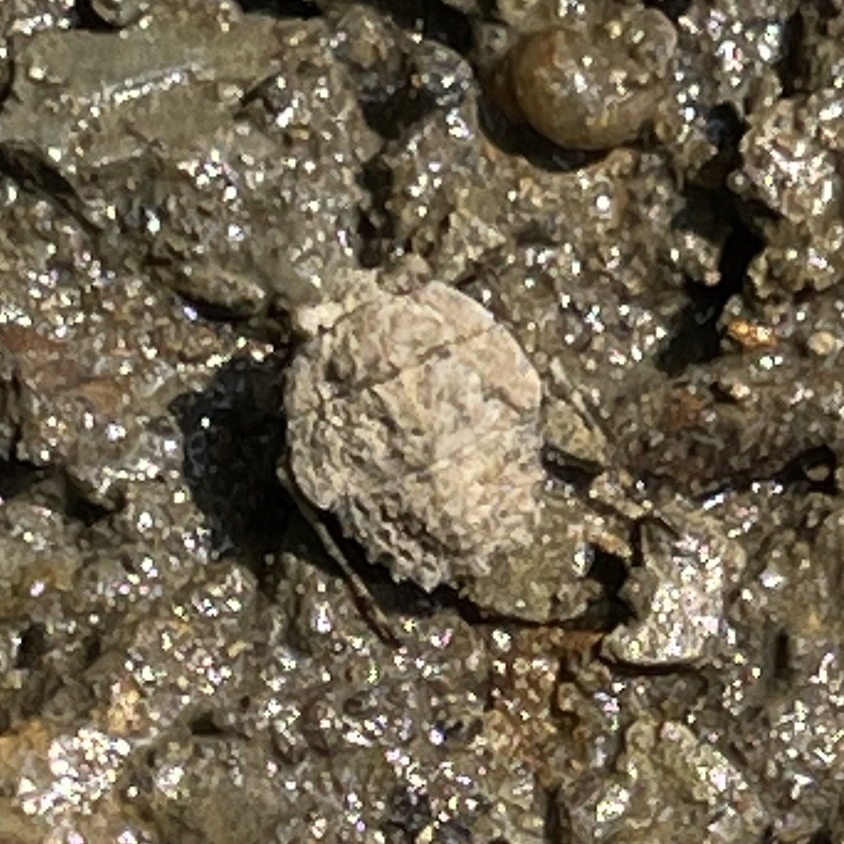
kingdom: Animalia
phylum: Arthropoda
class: Insecta
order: Hemiptera
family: Gelastocoridae
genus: Gelastocoris
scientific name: Gelastocoris oculatus
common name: Toad bug
